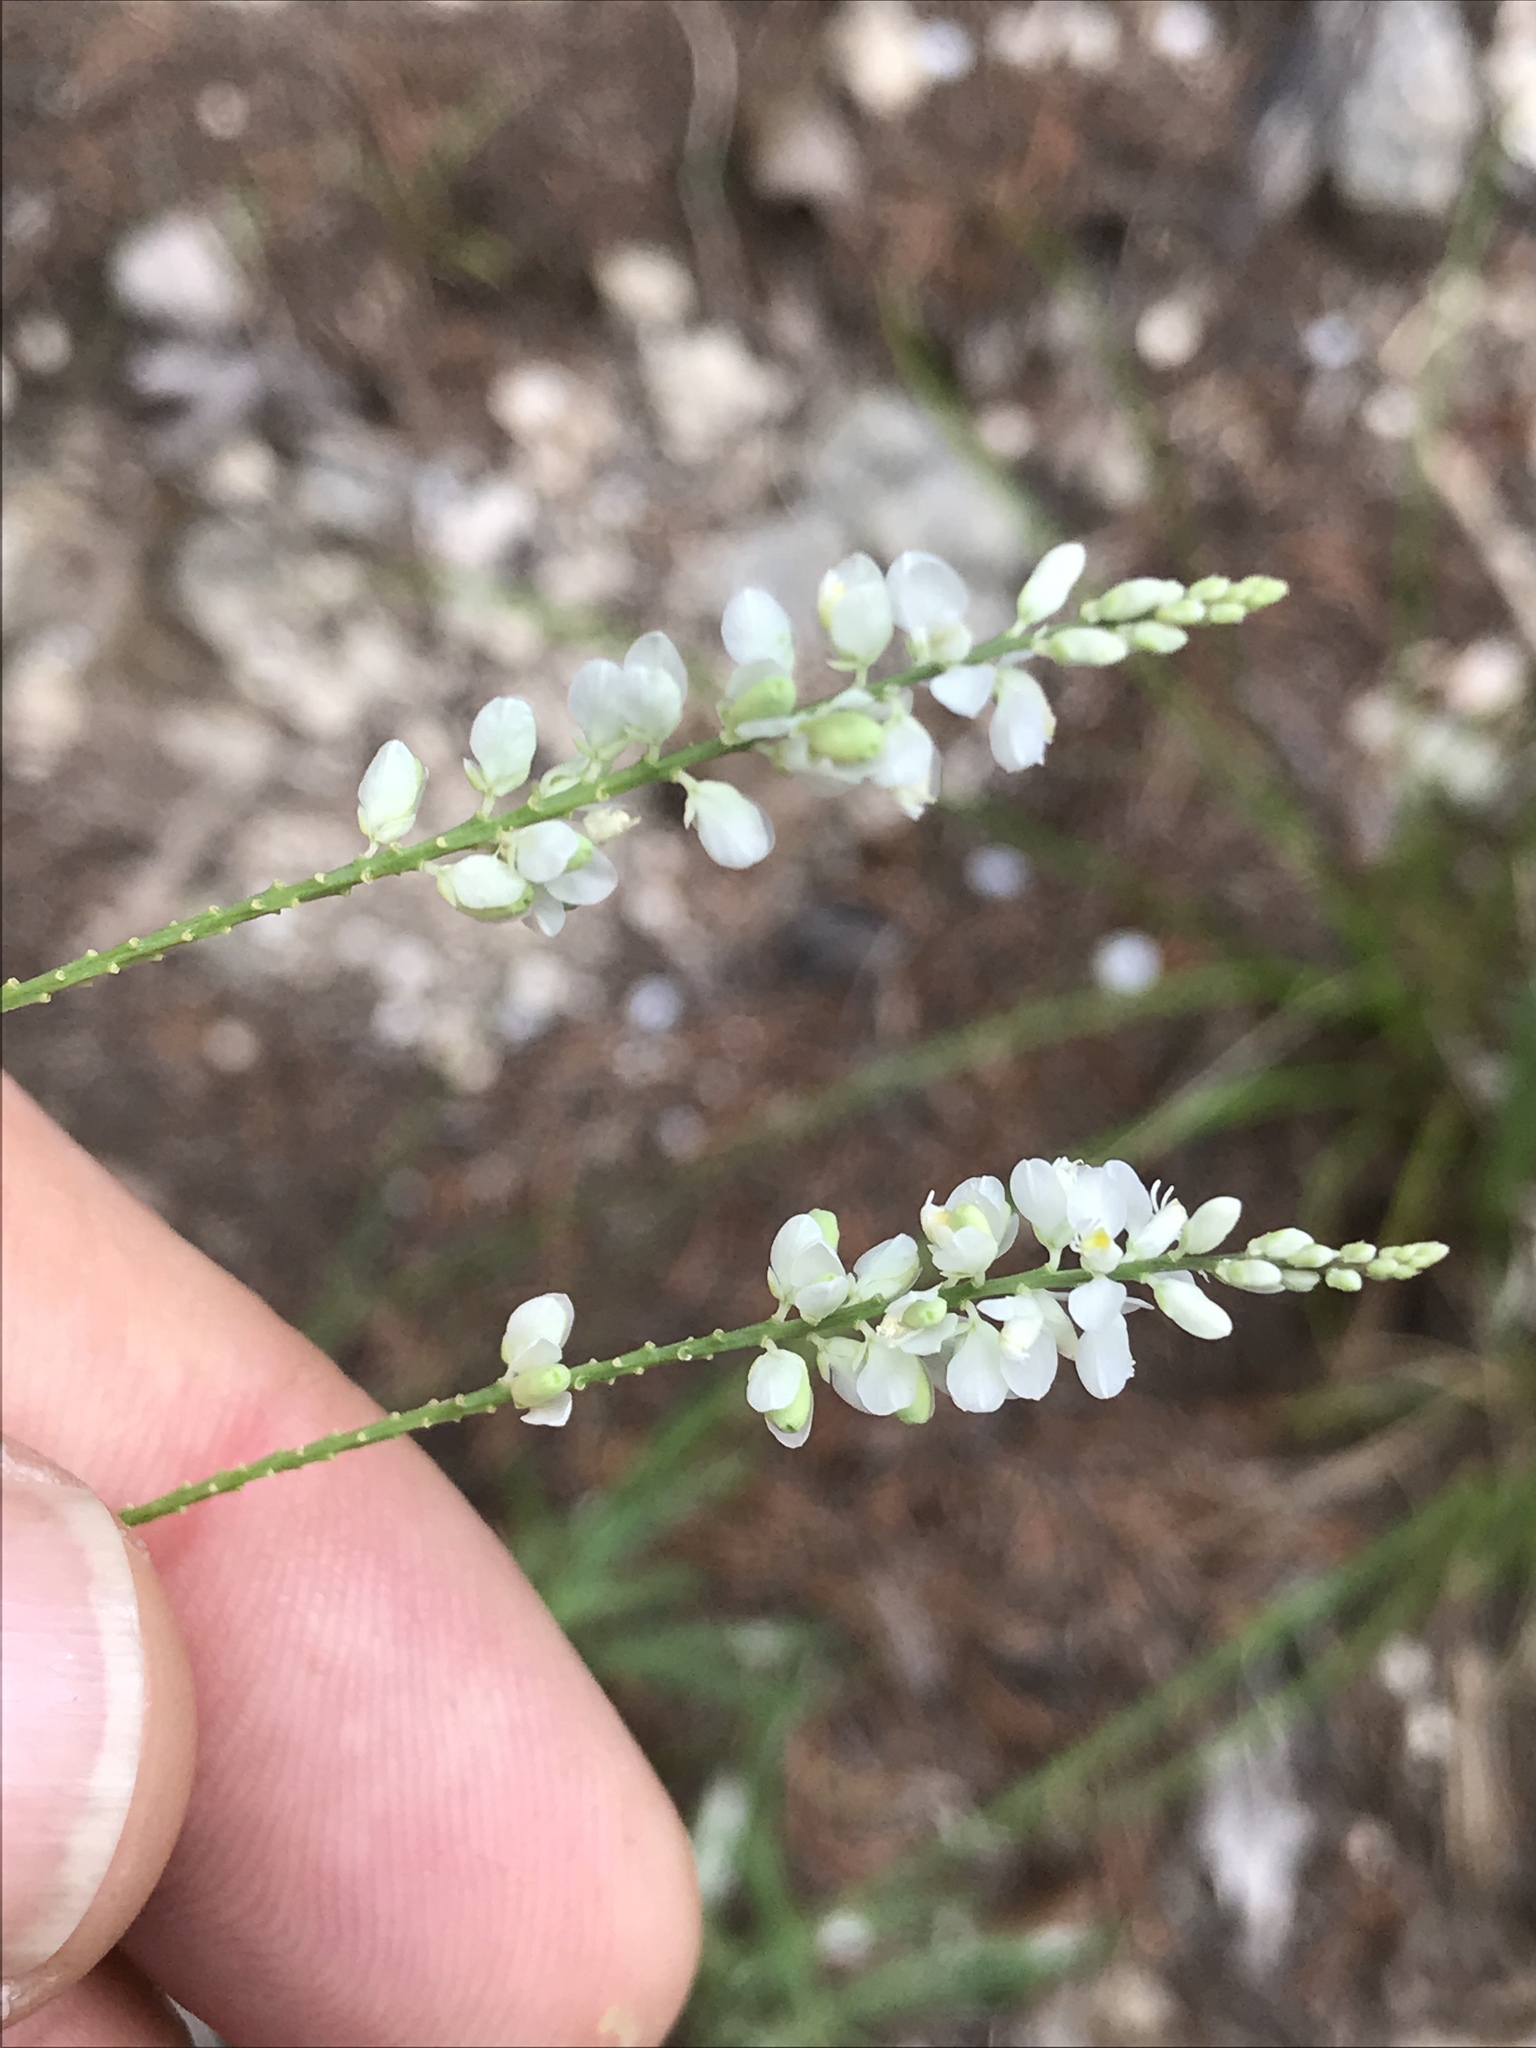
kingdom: Plantae
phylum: Tracheophyta
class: Magnoliopsida
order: Fabales
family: Polygalaceae
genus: Polygala
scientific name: Polygala alba
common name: White milkwort
